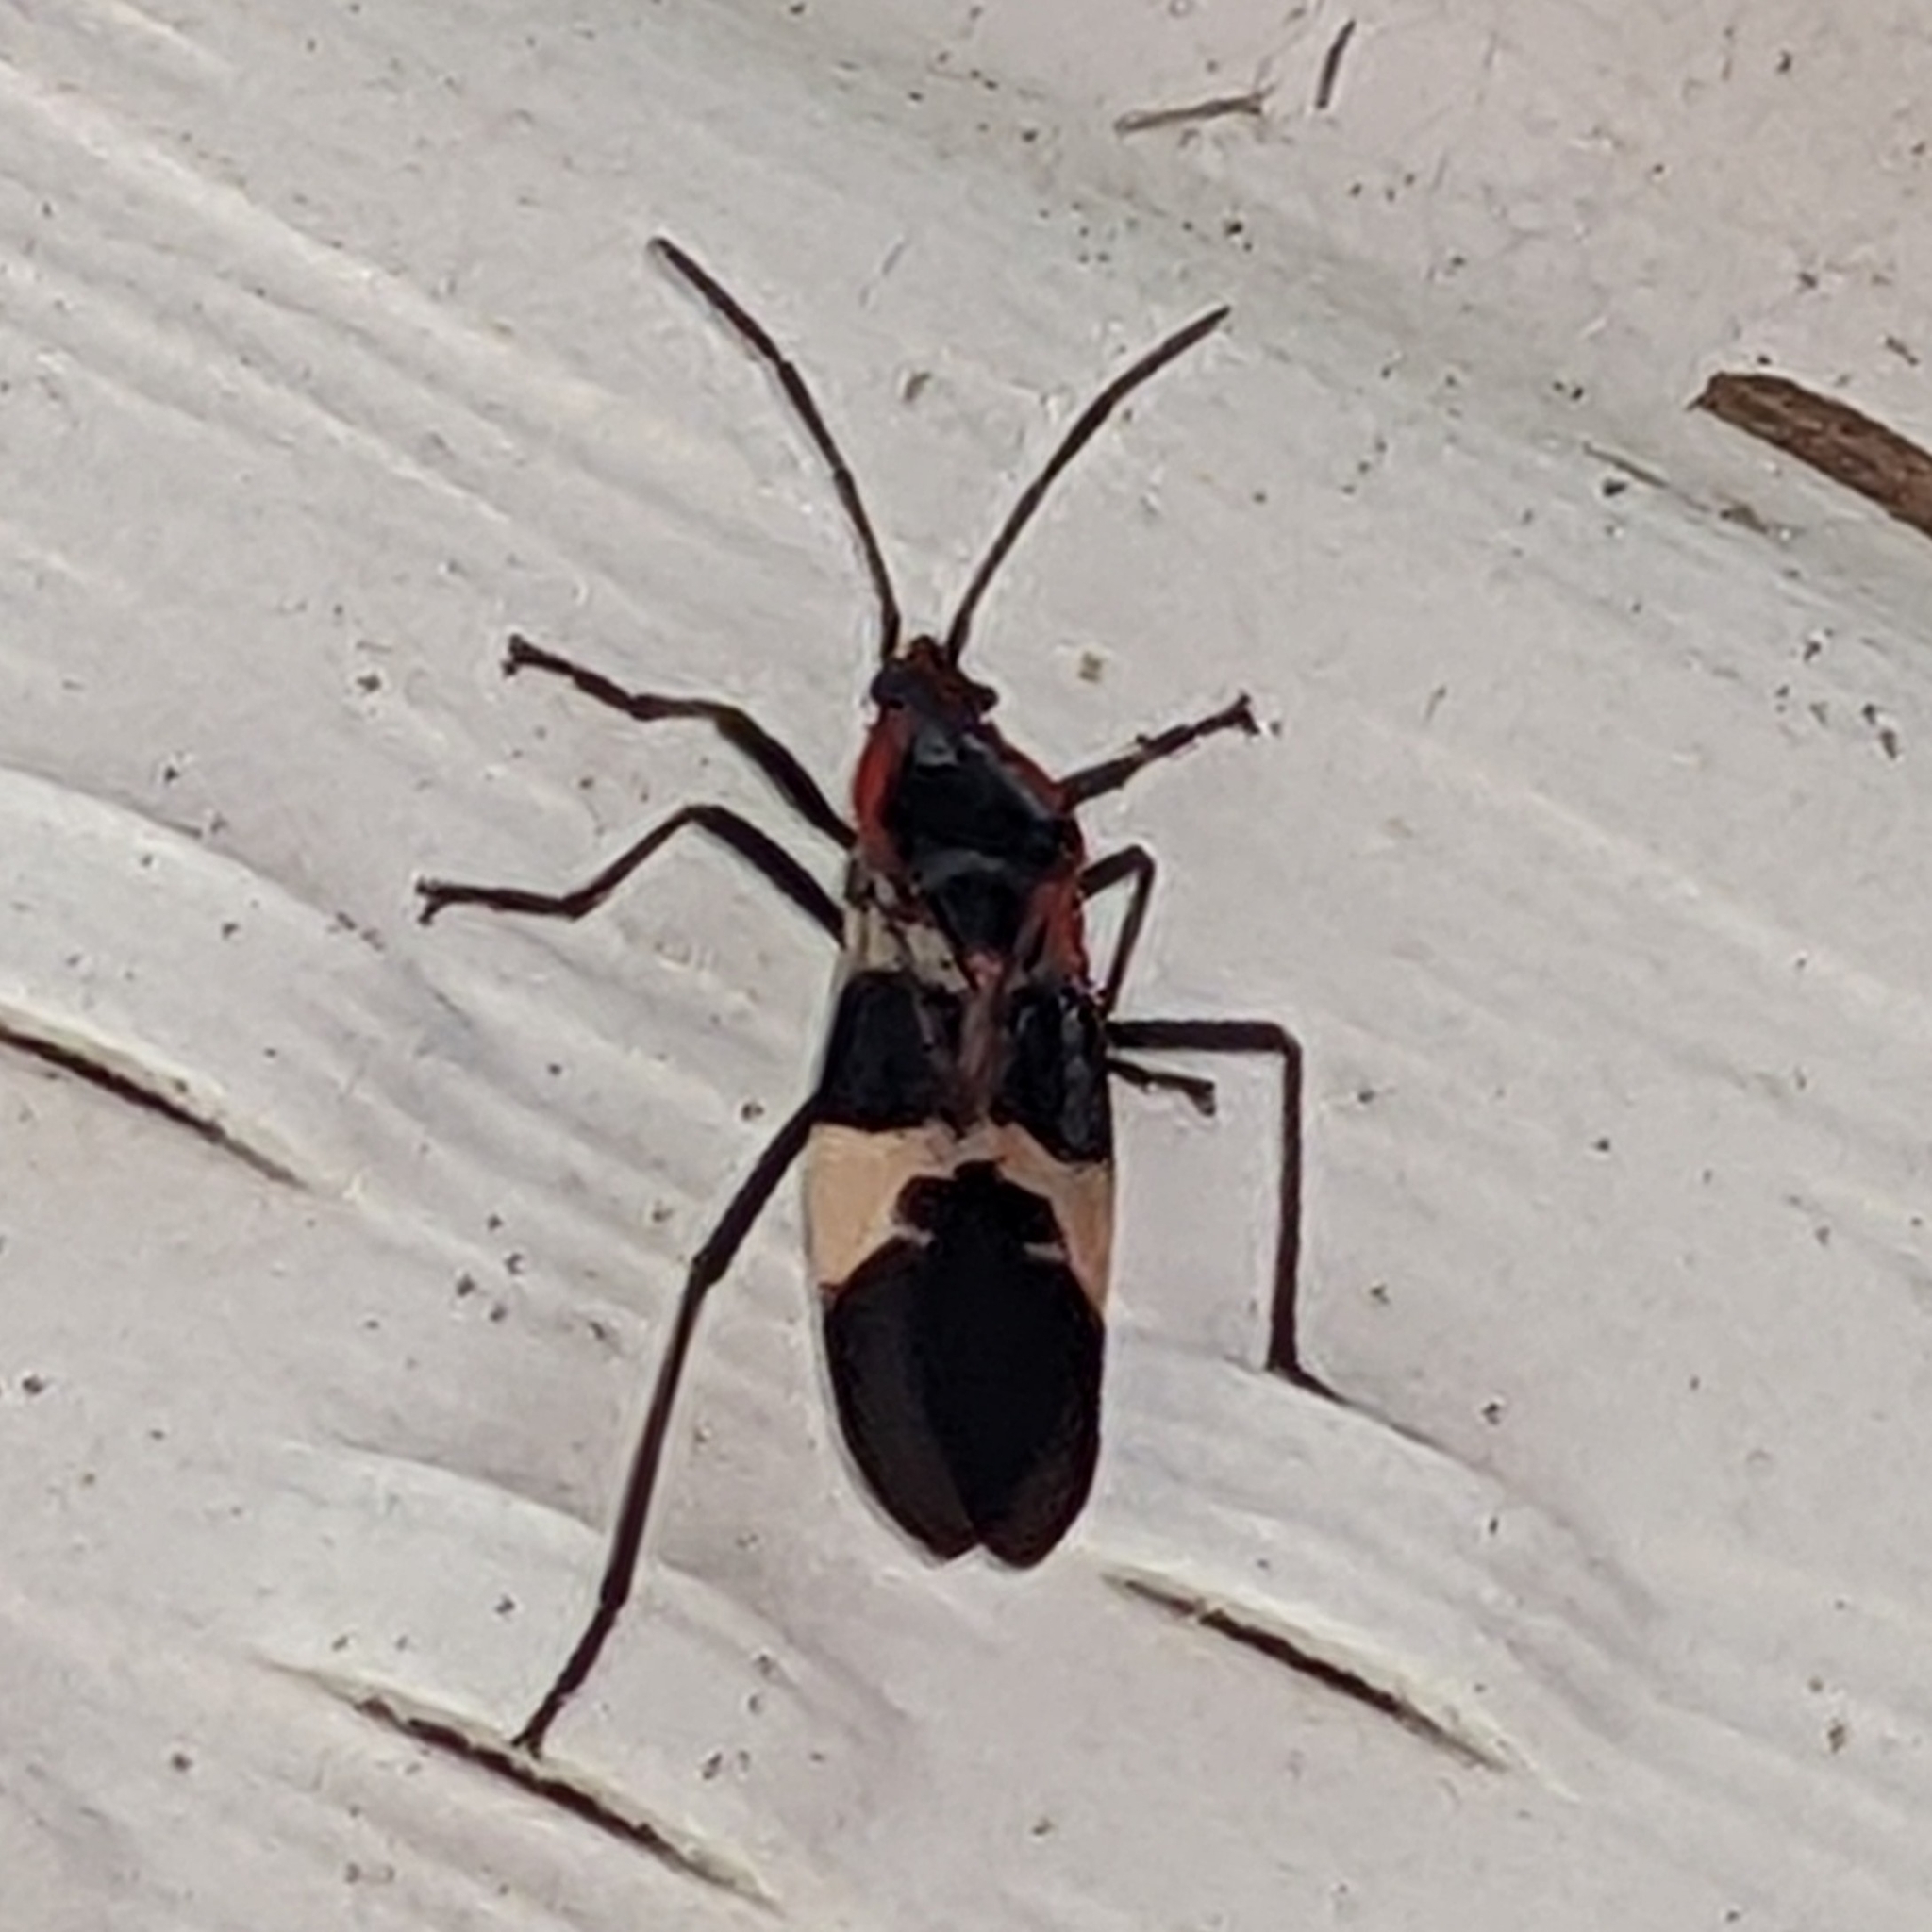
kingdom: Animalia
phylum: Arthropoda
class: Insecta
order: Hemiptera
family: Lygaeidae
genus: Oncopeltus
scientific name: Oncopeltus fasciatus
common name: Large milkweed bug
